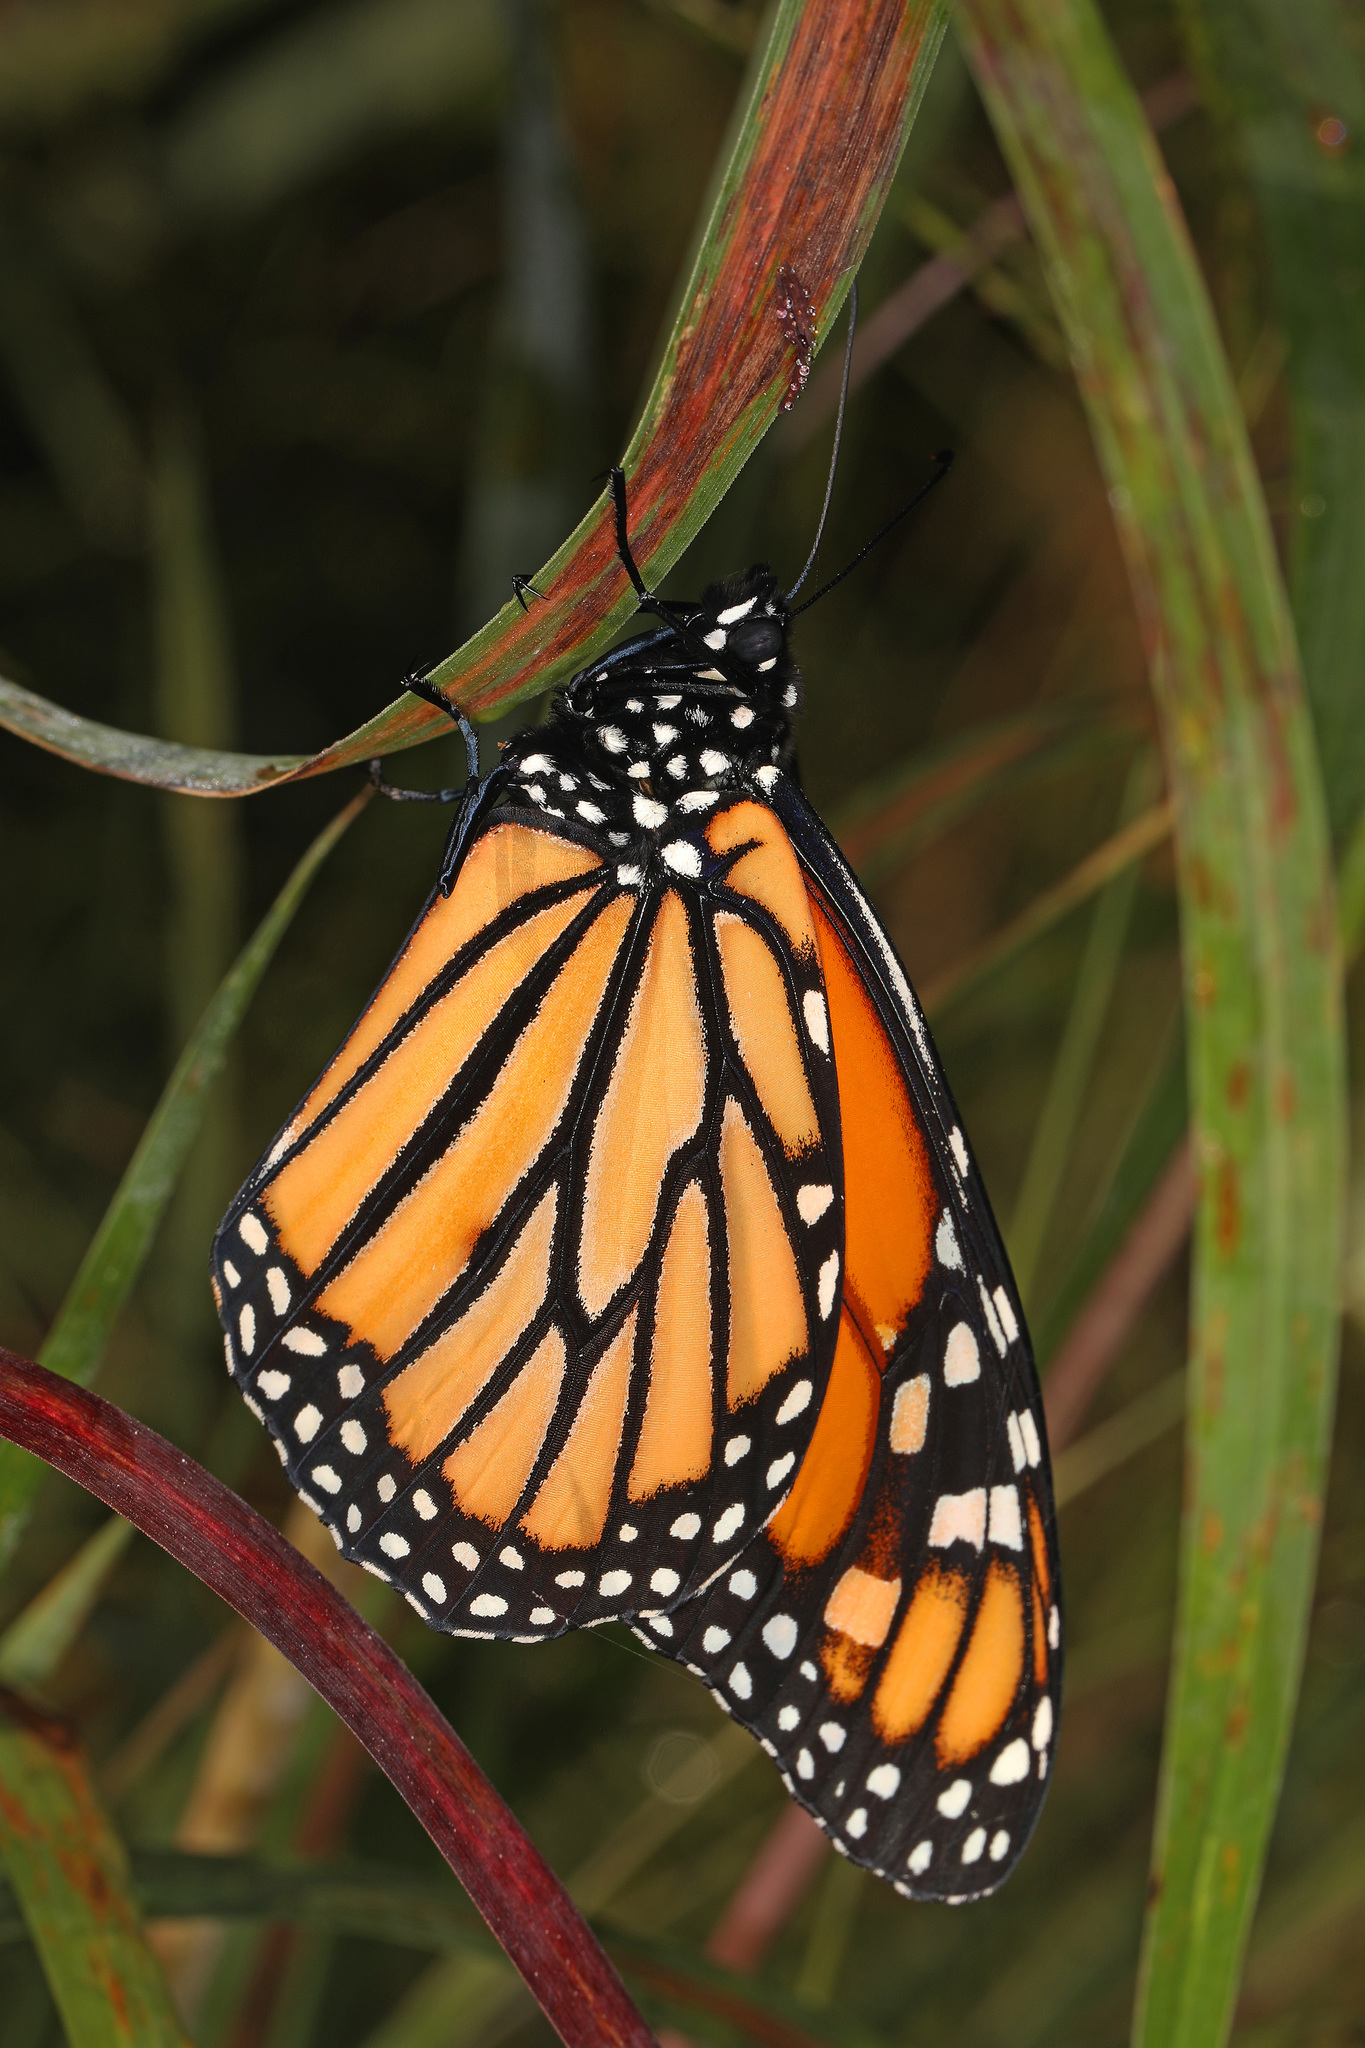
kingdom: Animalia
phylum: Arthropoda
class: Insecta
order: Lepidoptera
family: Nymphalidae
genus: Danaus
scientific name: Danaus plexippus
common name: Monarch
